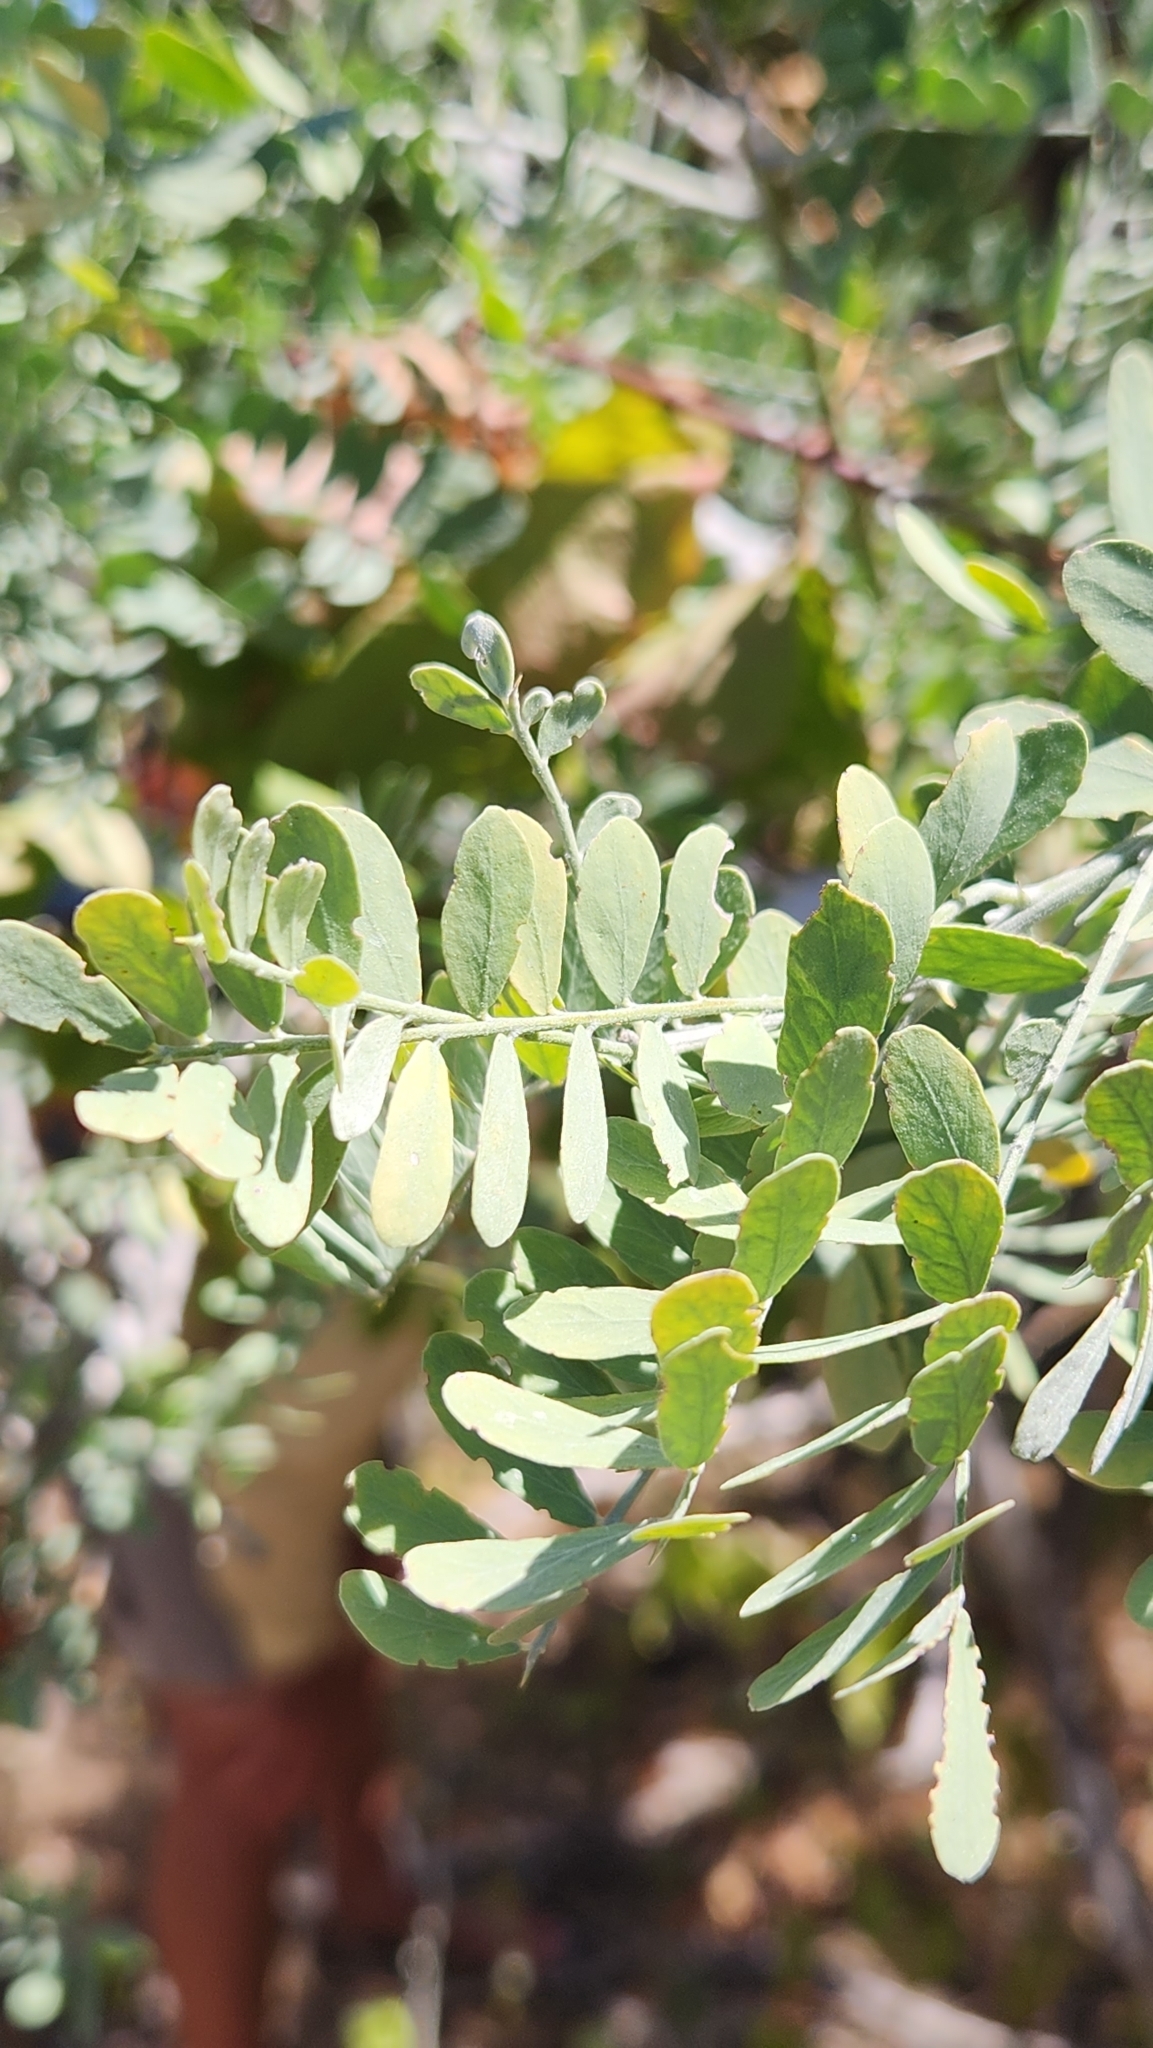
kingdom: Plantae
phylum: Tracheophyta
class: Magnoliopsida
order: Fabales
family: Fabaceae
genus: Olneya
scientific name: Olneya tesota
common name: Desert ironwood
